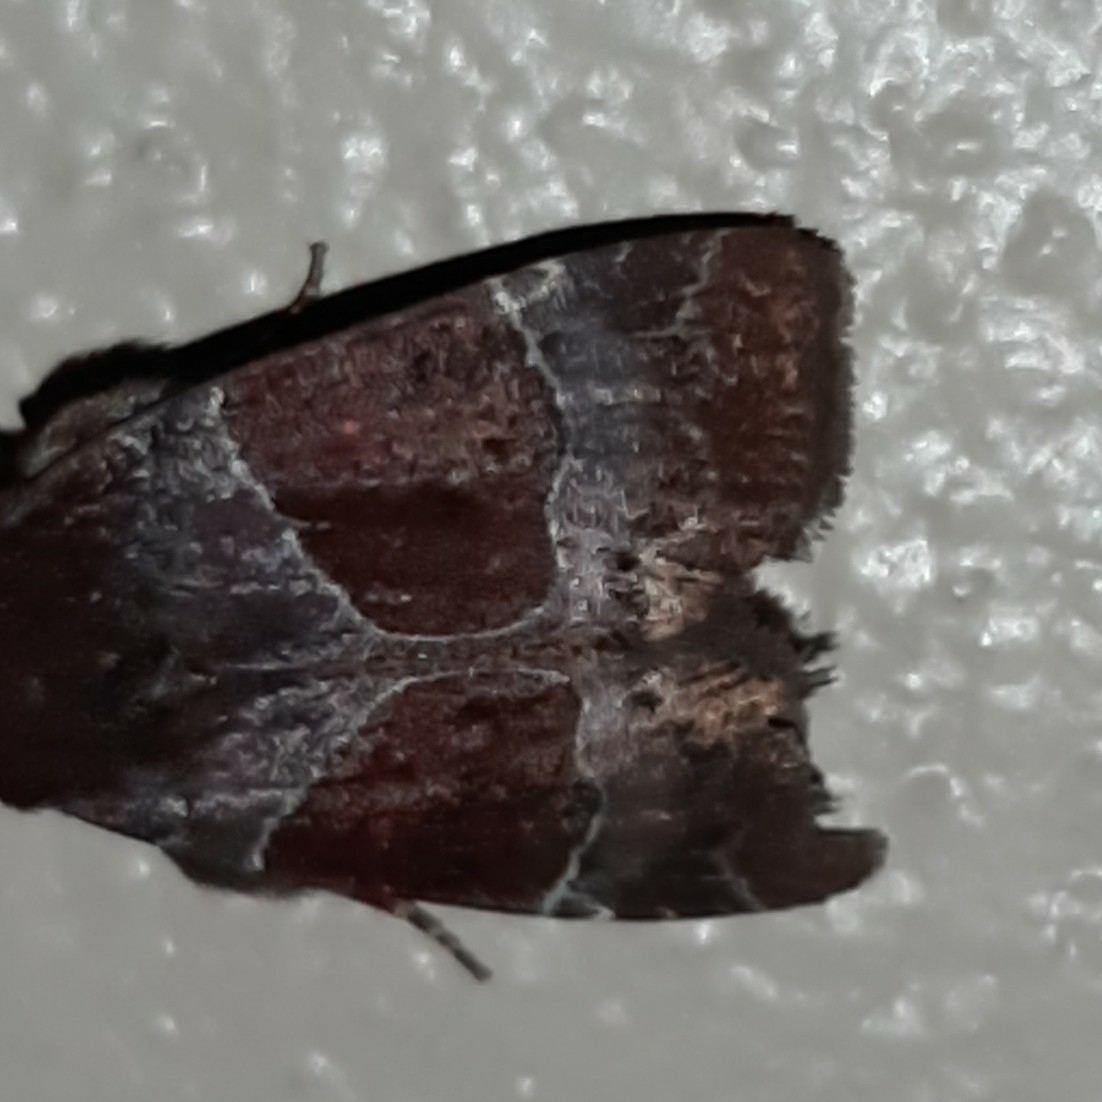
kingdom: Animalia
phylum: Arthropoda
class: Insecta
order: Lepidoptera
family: Noctuidae
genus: Hampsonodes
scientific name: Hampsonodes mastoides
